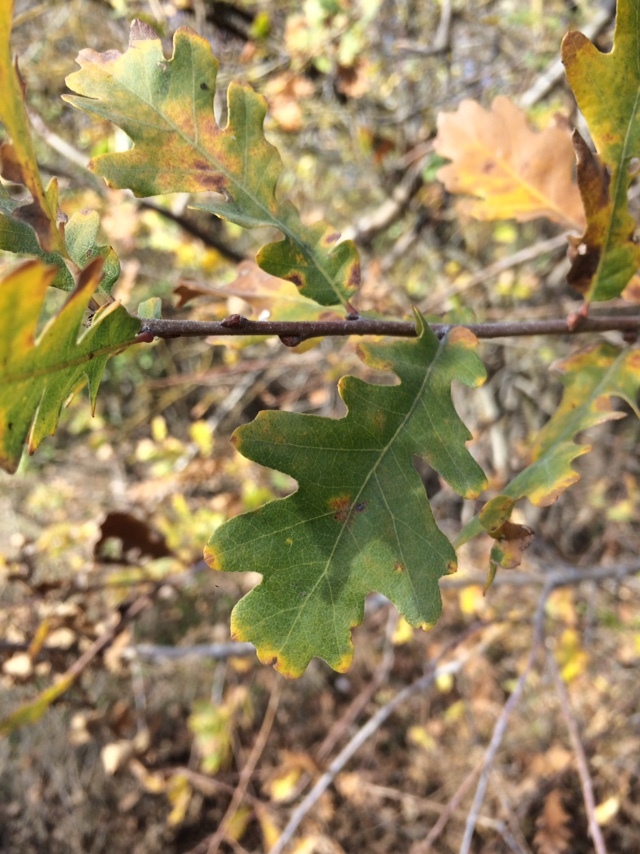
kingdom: Plantae
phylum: Tracheophyta
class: Magnoliopsida
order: Fagales
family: Fagaceae
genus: Quercus
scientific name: Quercus lobata
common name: Valley oak
